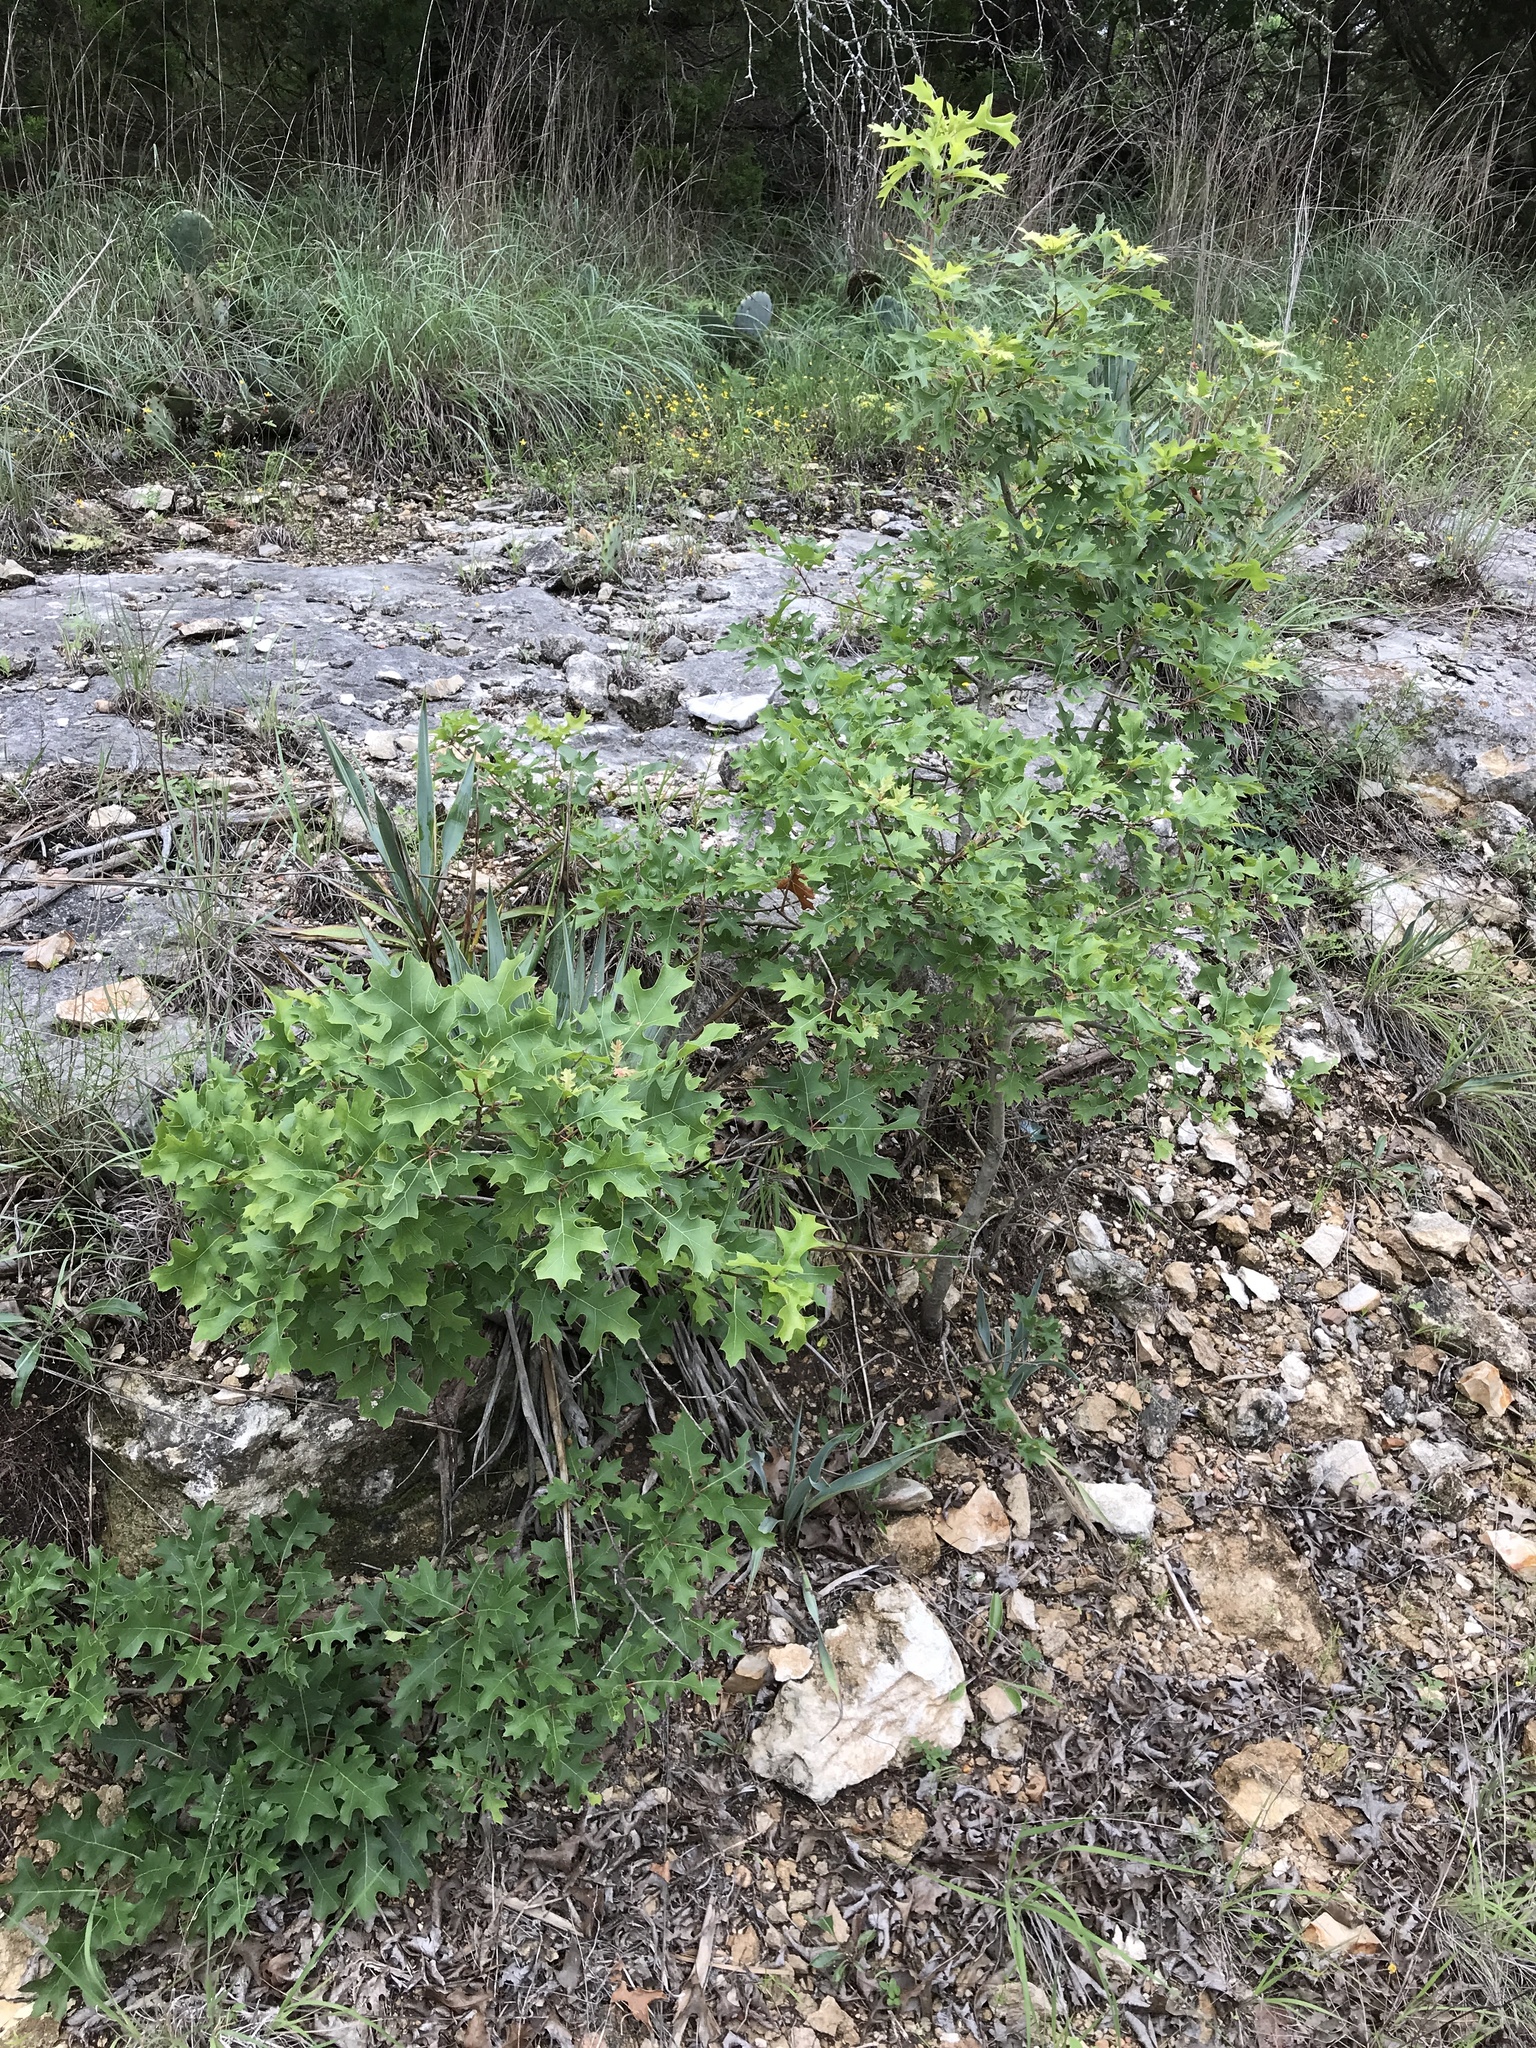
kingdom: Plantae
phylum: Tracheophyta
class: Magnoliopsida
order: Fagales
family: Fagaceae
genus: Quercus
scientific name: Quercus buckleyi
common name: Buckley oak
